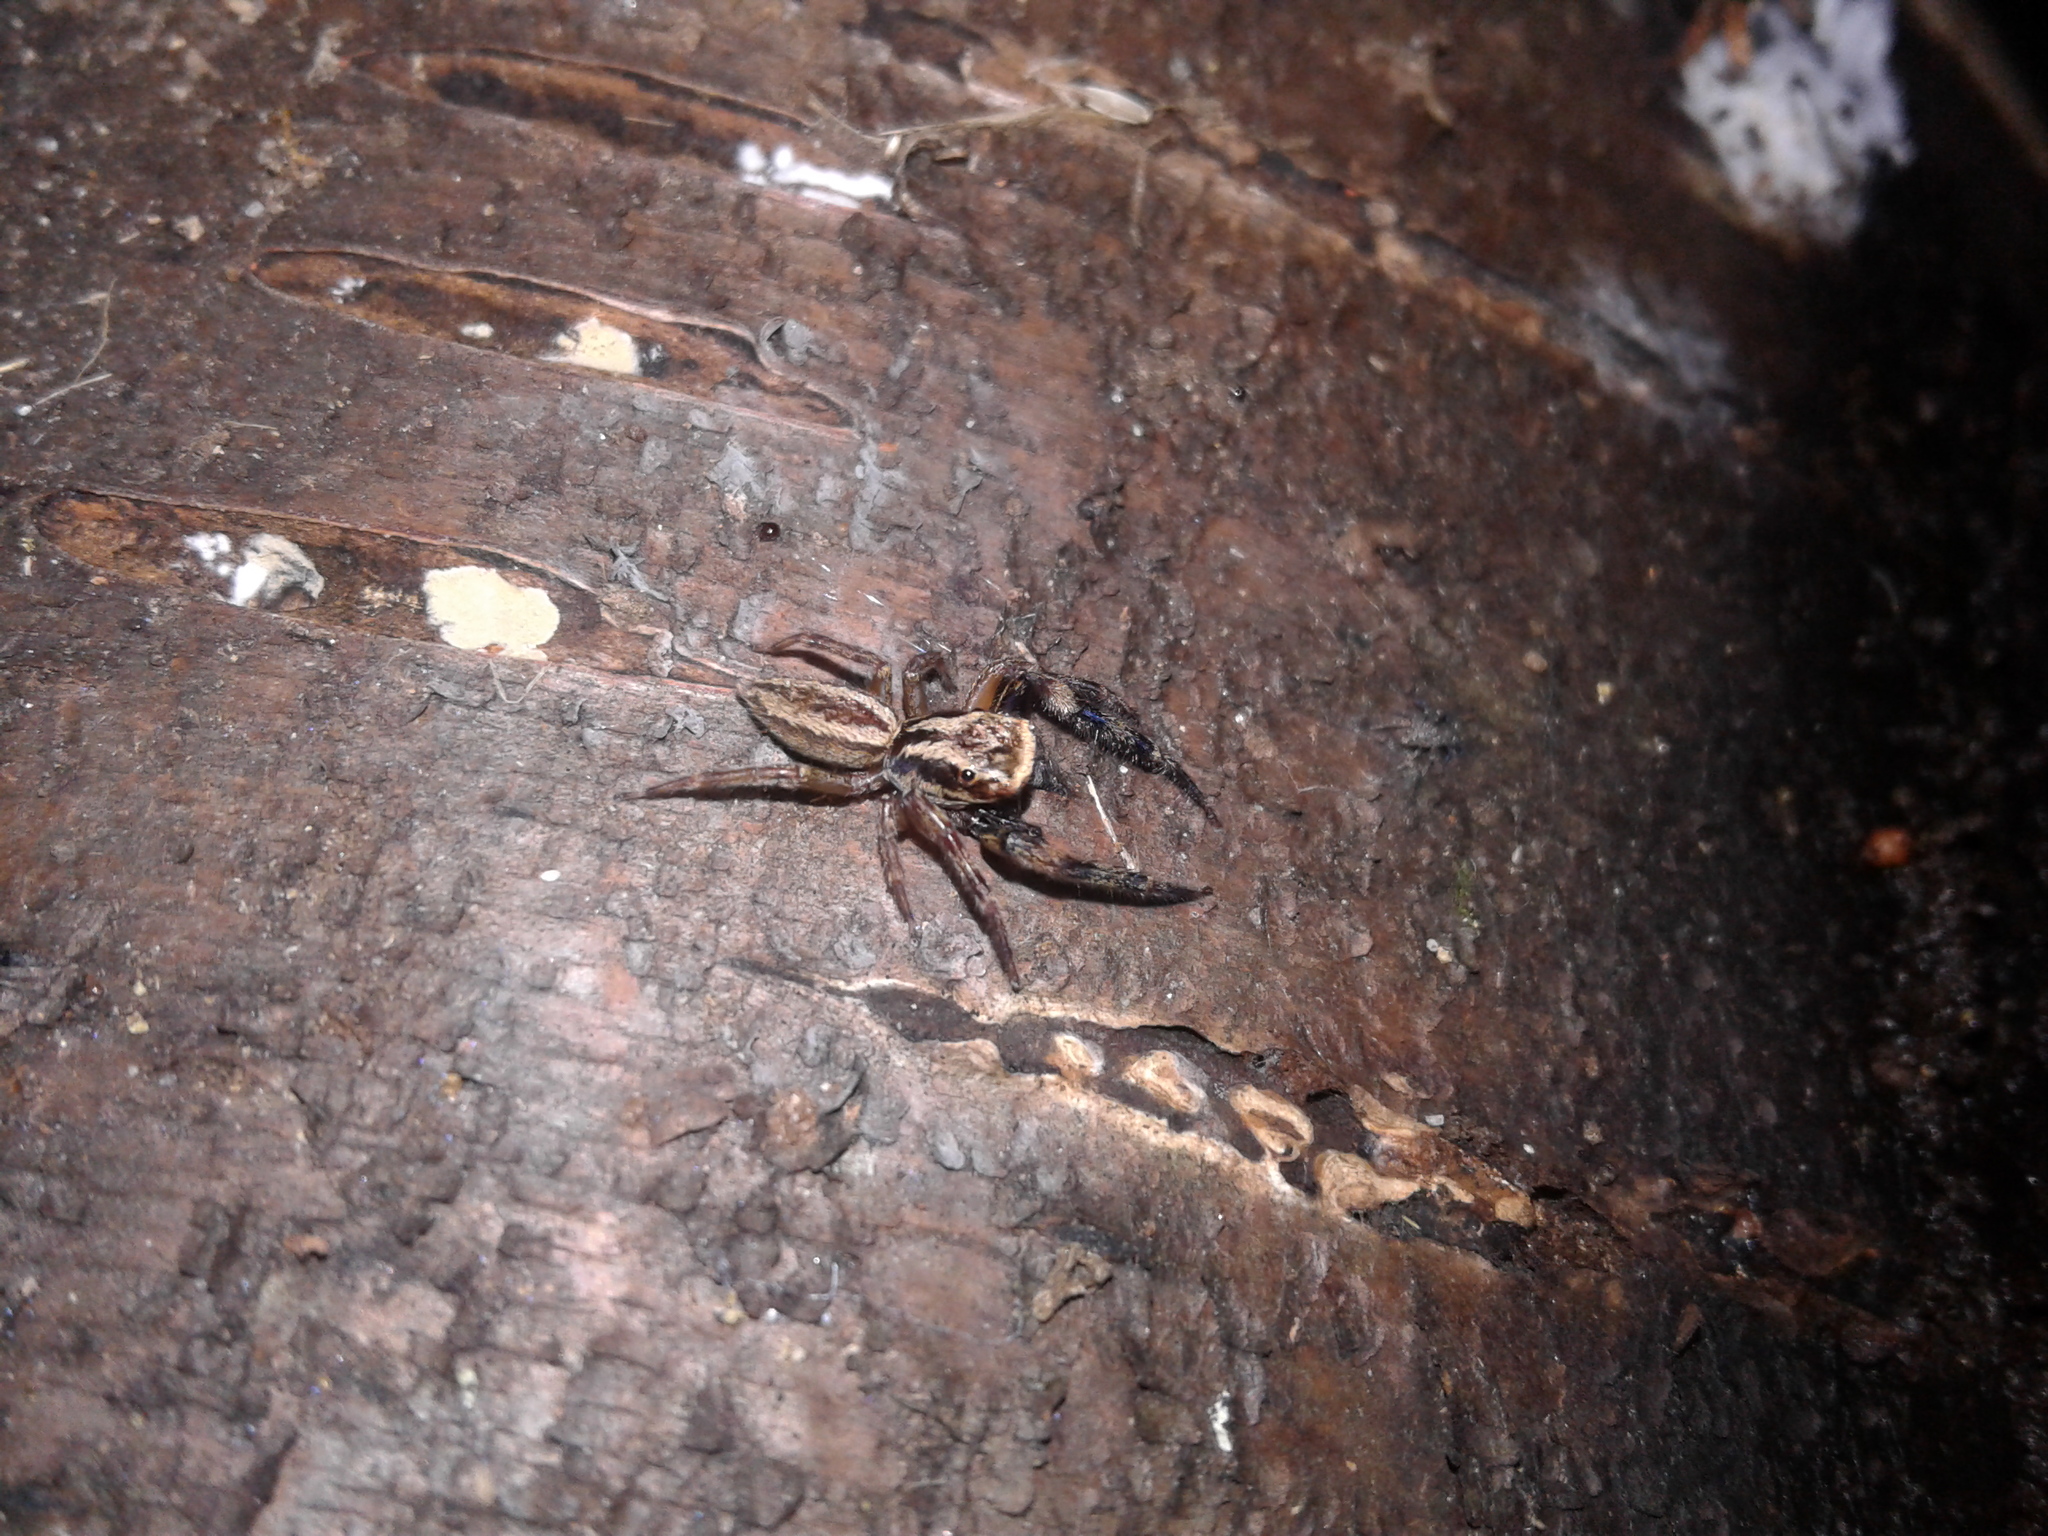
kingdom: Animalia
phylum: Arthropoda
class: Arachnida
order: Araneae
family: Salticidae
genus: Trite
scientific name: Trite auricoma
